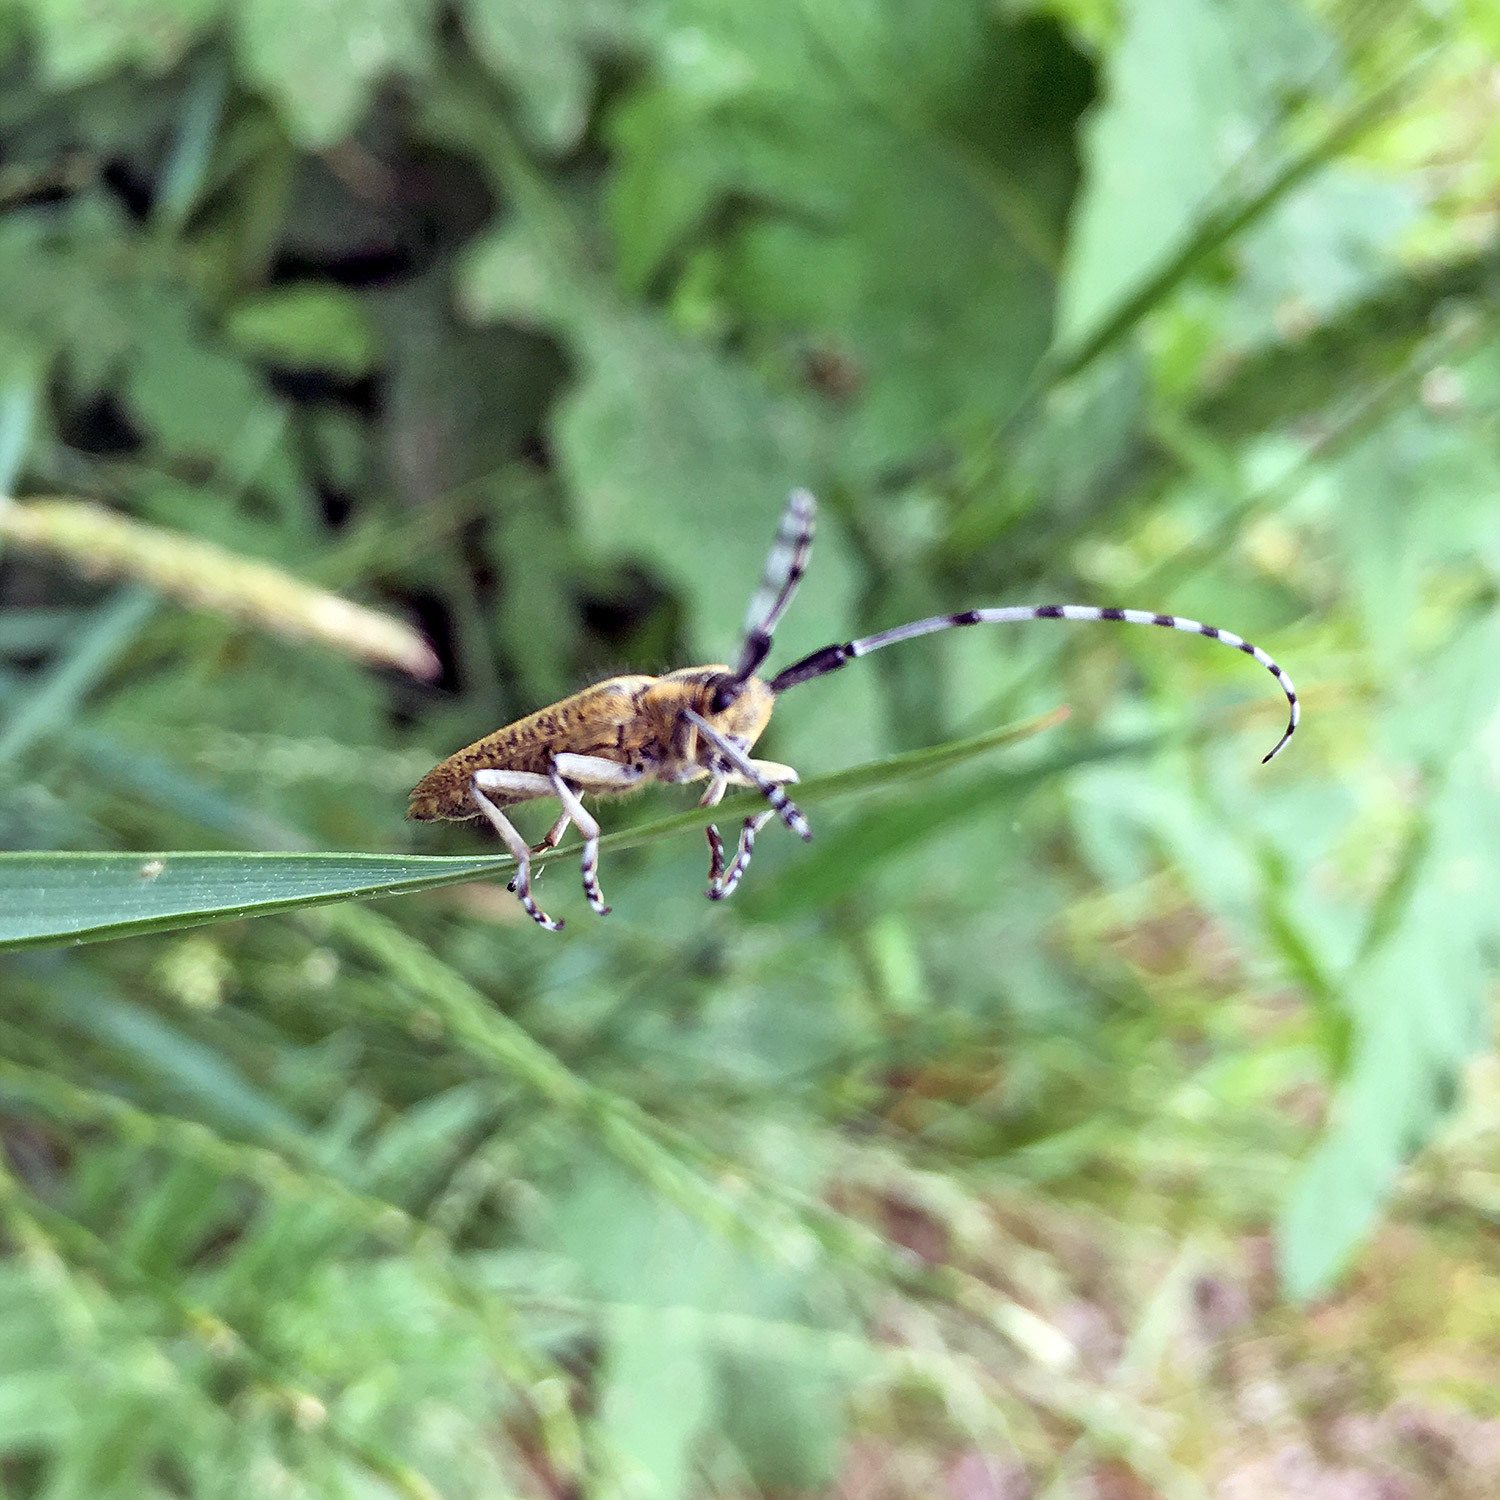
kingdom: Animalia
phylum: Arthropoda
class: Insecta
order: Coleoptera
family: Cerambycidae
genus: Agapanthia
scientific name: Agapanthia villosoviridescens
